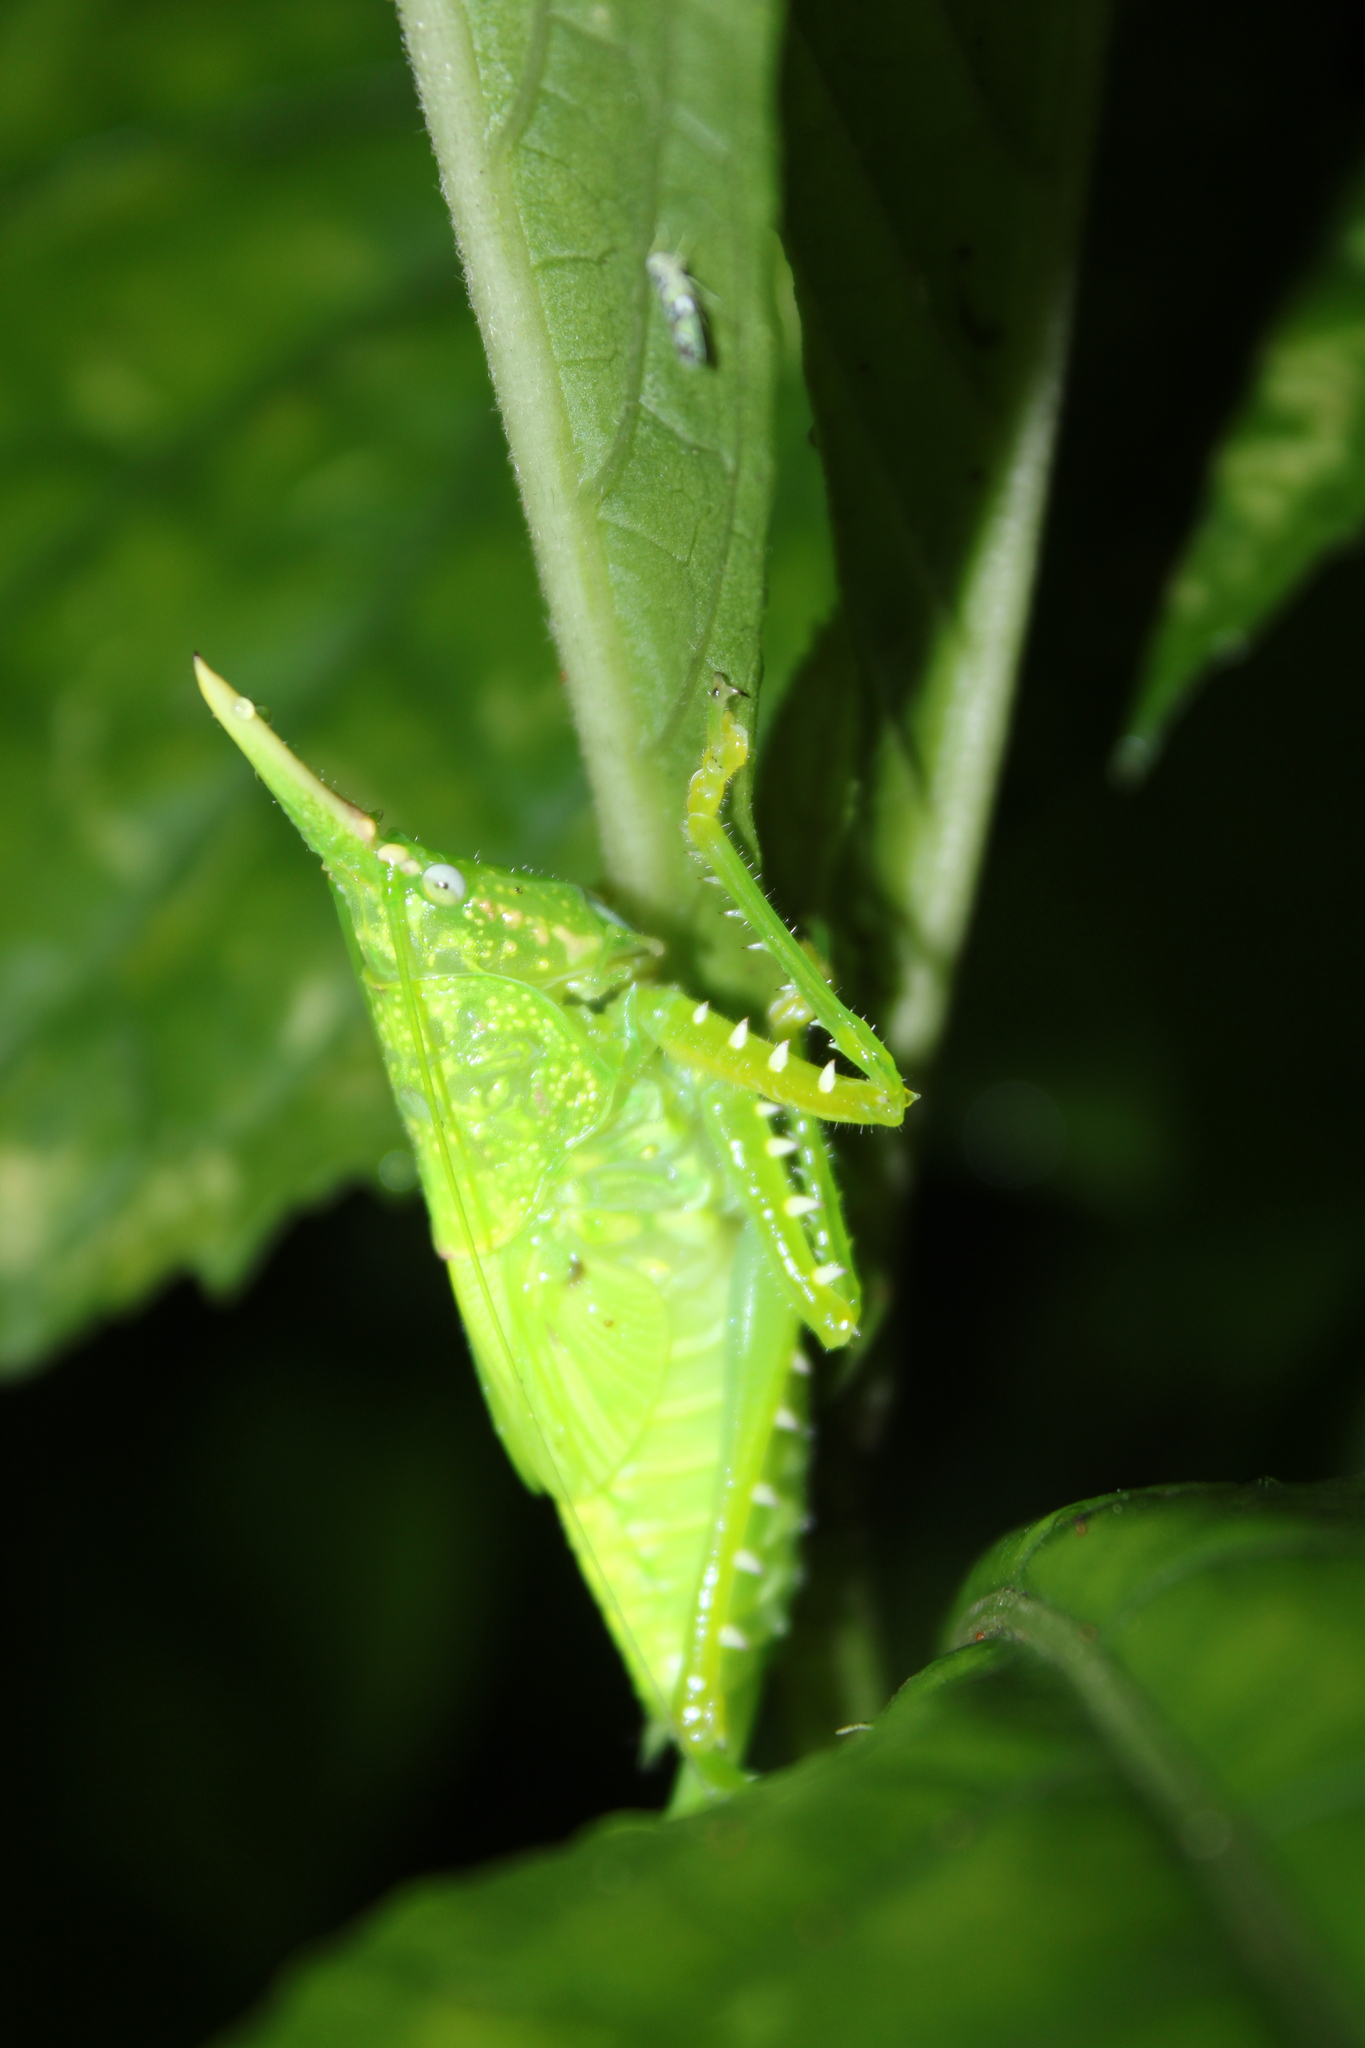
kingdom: Animalia
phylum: Arthropoda
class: Insecta
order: Orthoptera
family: Tettigoniidae
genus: Copiphora
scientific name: Copiphora rhinoceros
